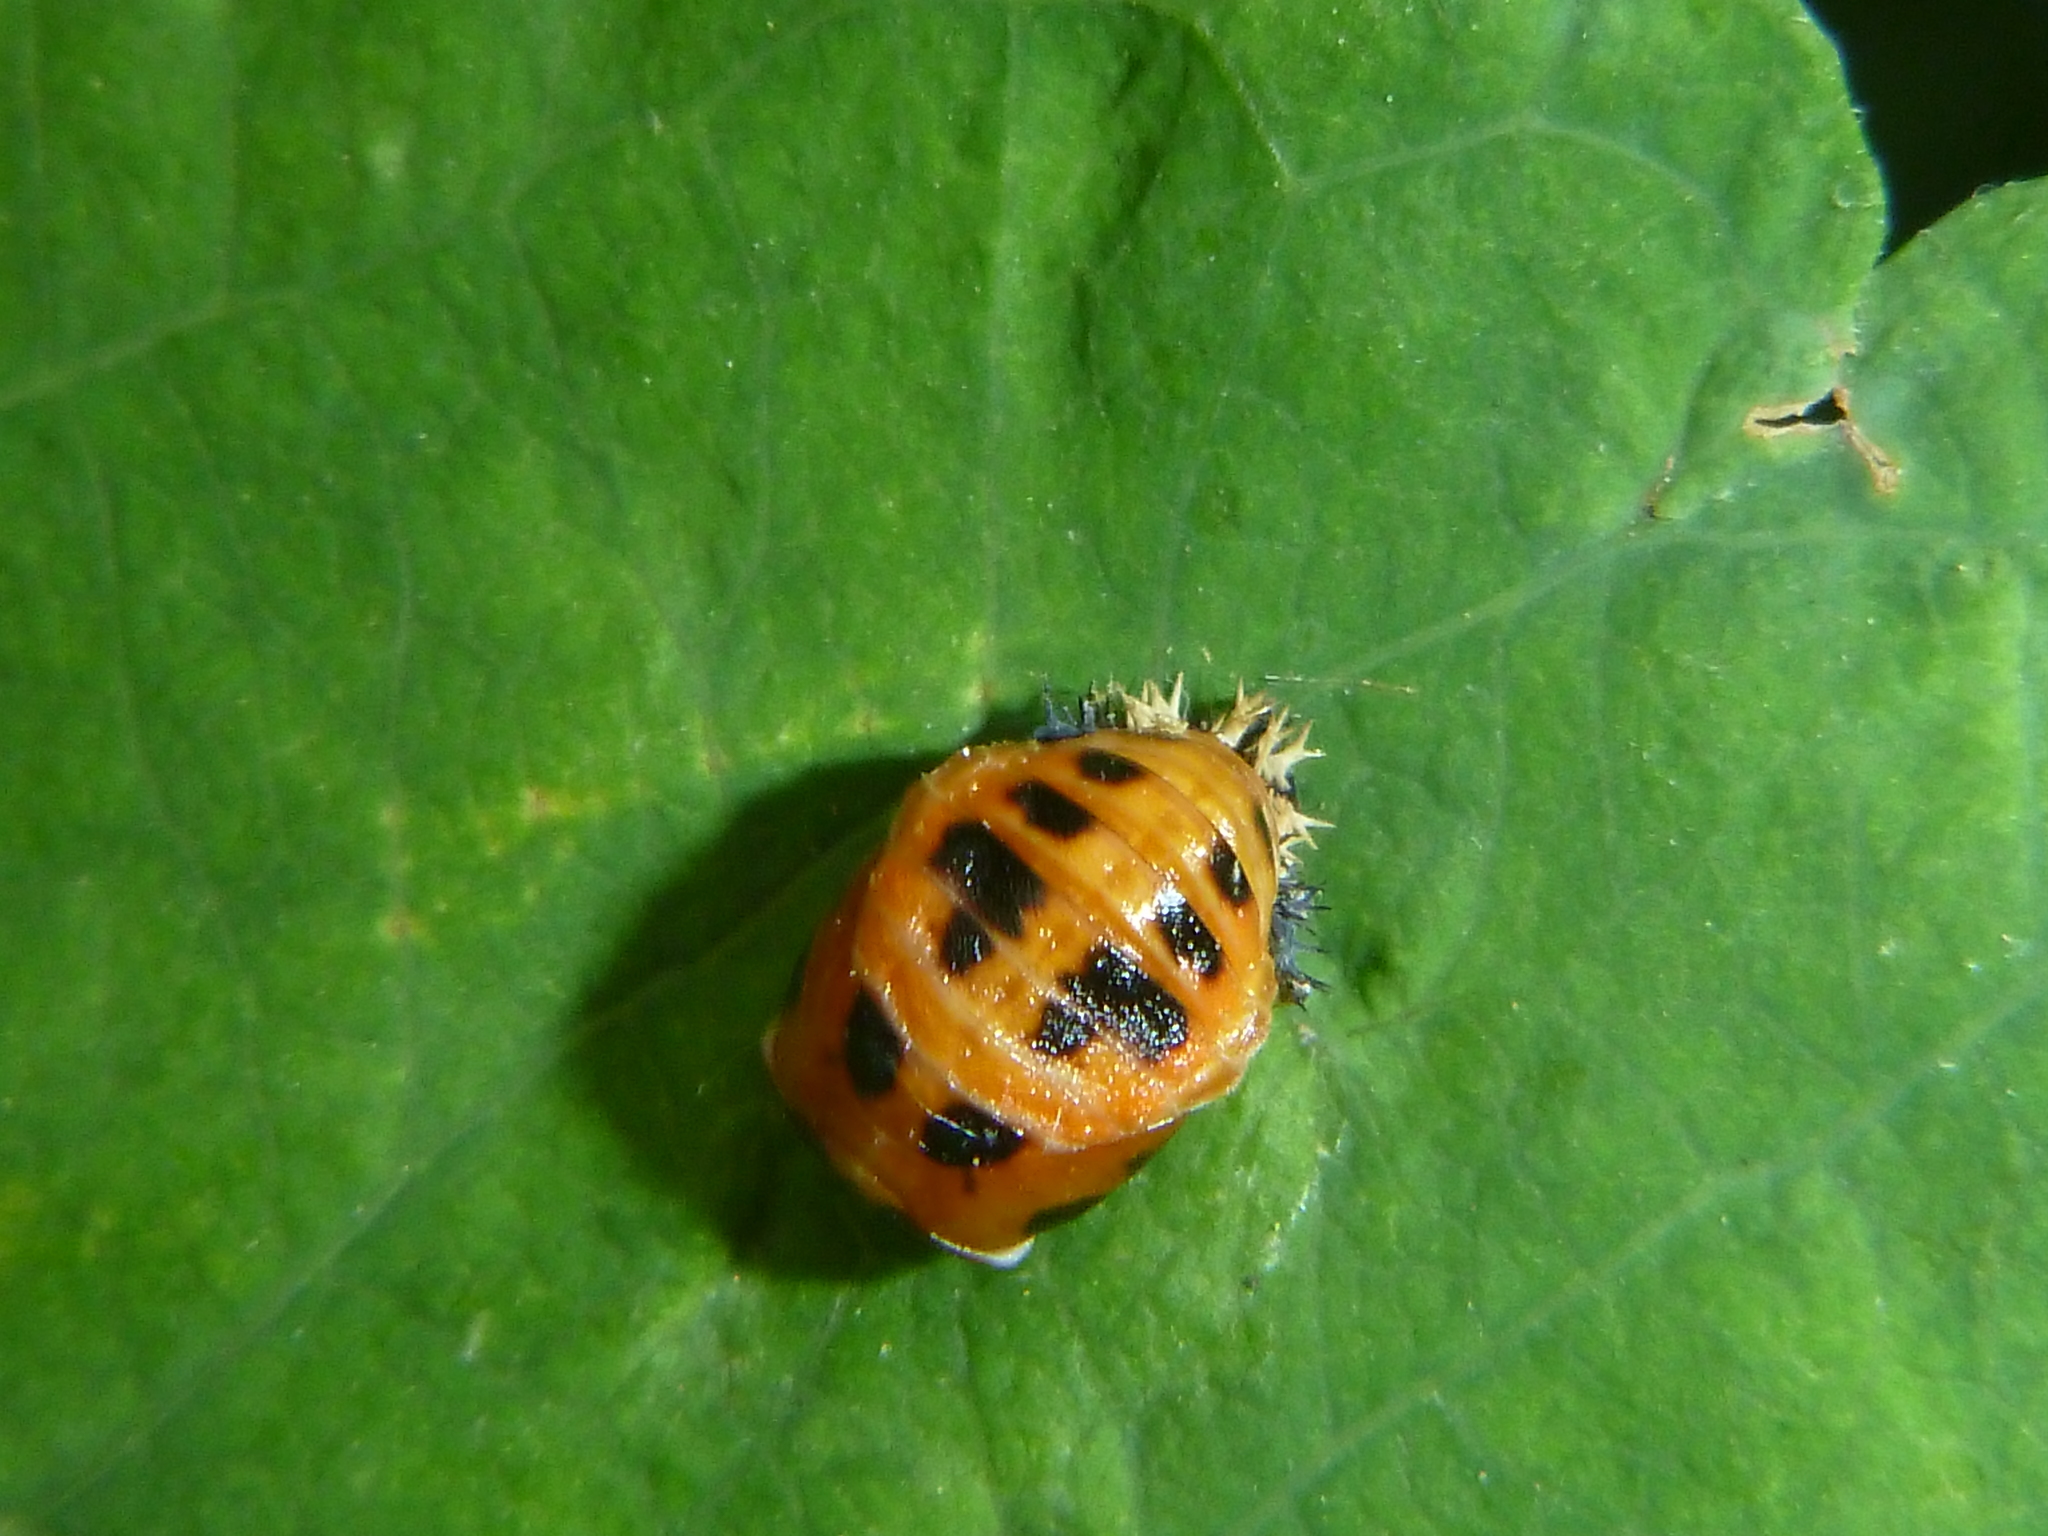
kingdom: Animalia
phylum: Arthropoda
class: Insecta
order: Coleoptera
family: Coccinellidae
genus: Harmonia
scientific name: Harmonia axyridis
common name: Harlequin ladybird
